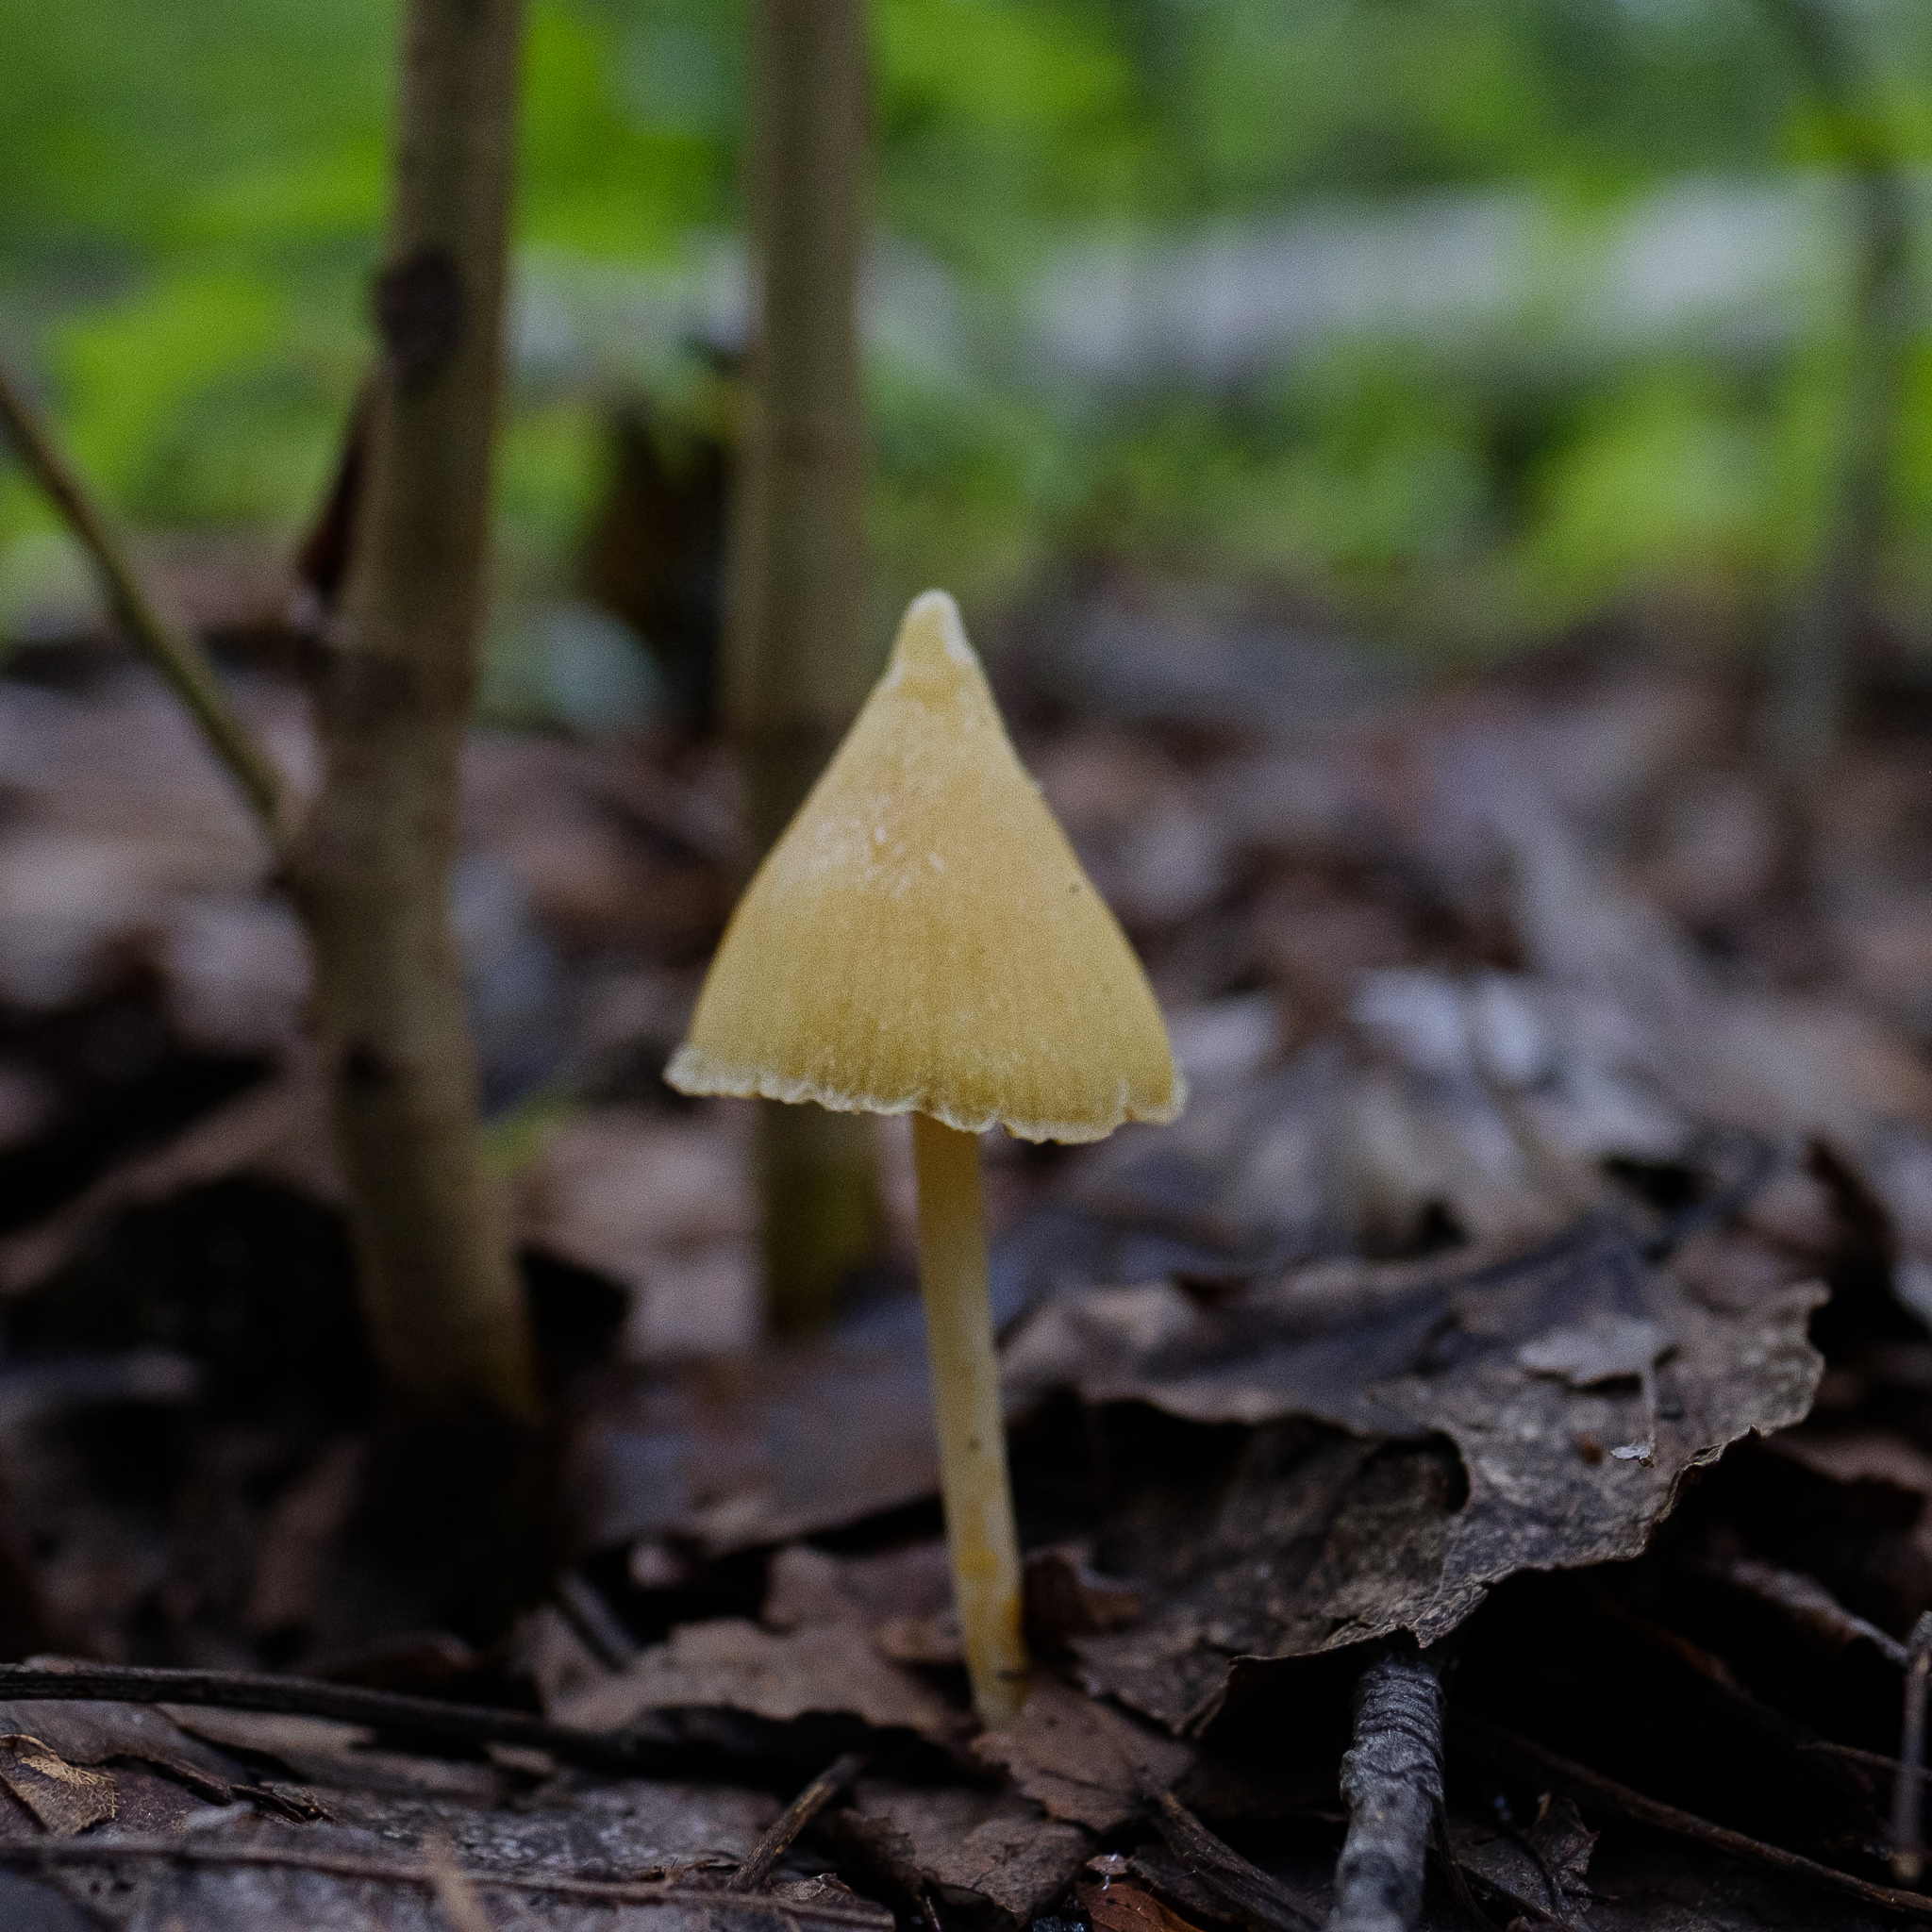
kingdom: Fungi
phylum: Basidiomycota
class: Agaricomycetes
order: Agaricales
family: Entolomataceae
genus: Entoloma
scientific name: Entoloma murrayi
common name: Yellow unicorn entoloma
